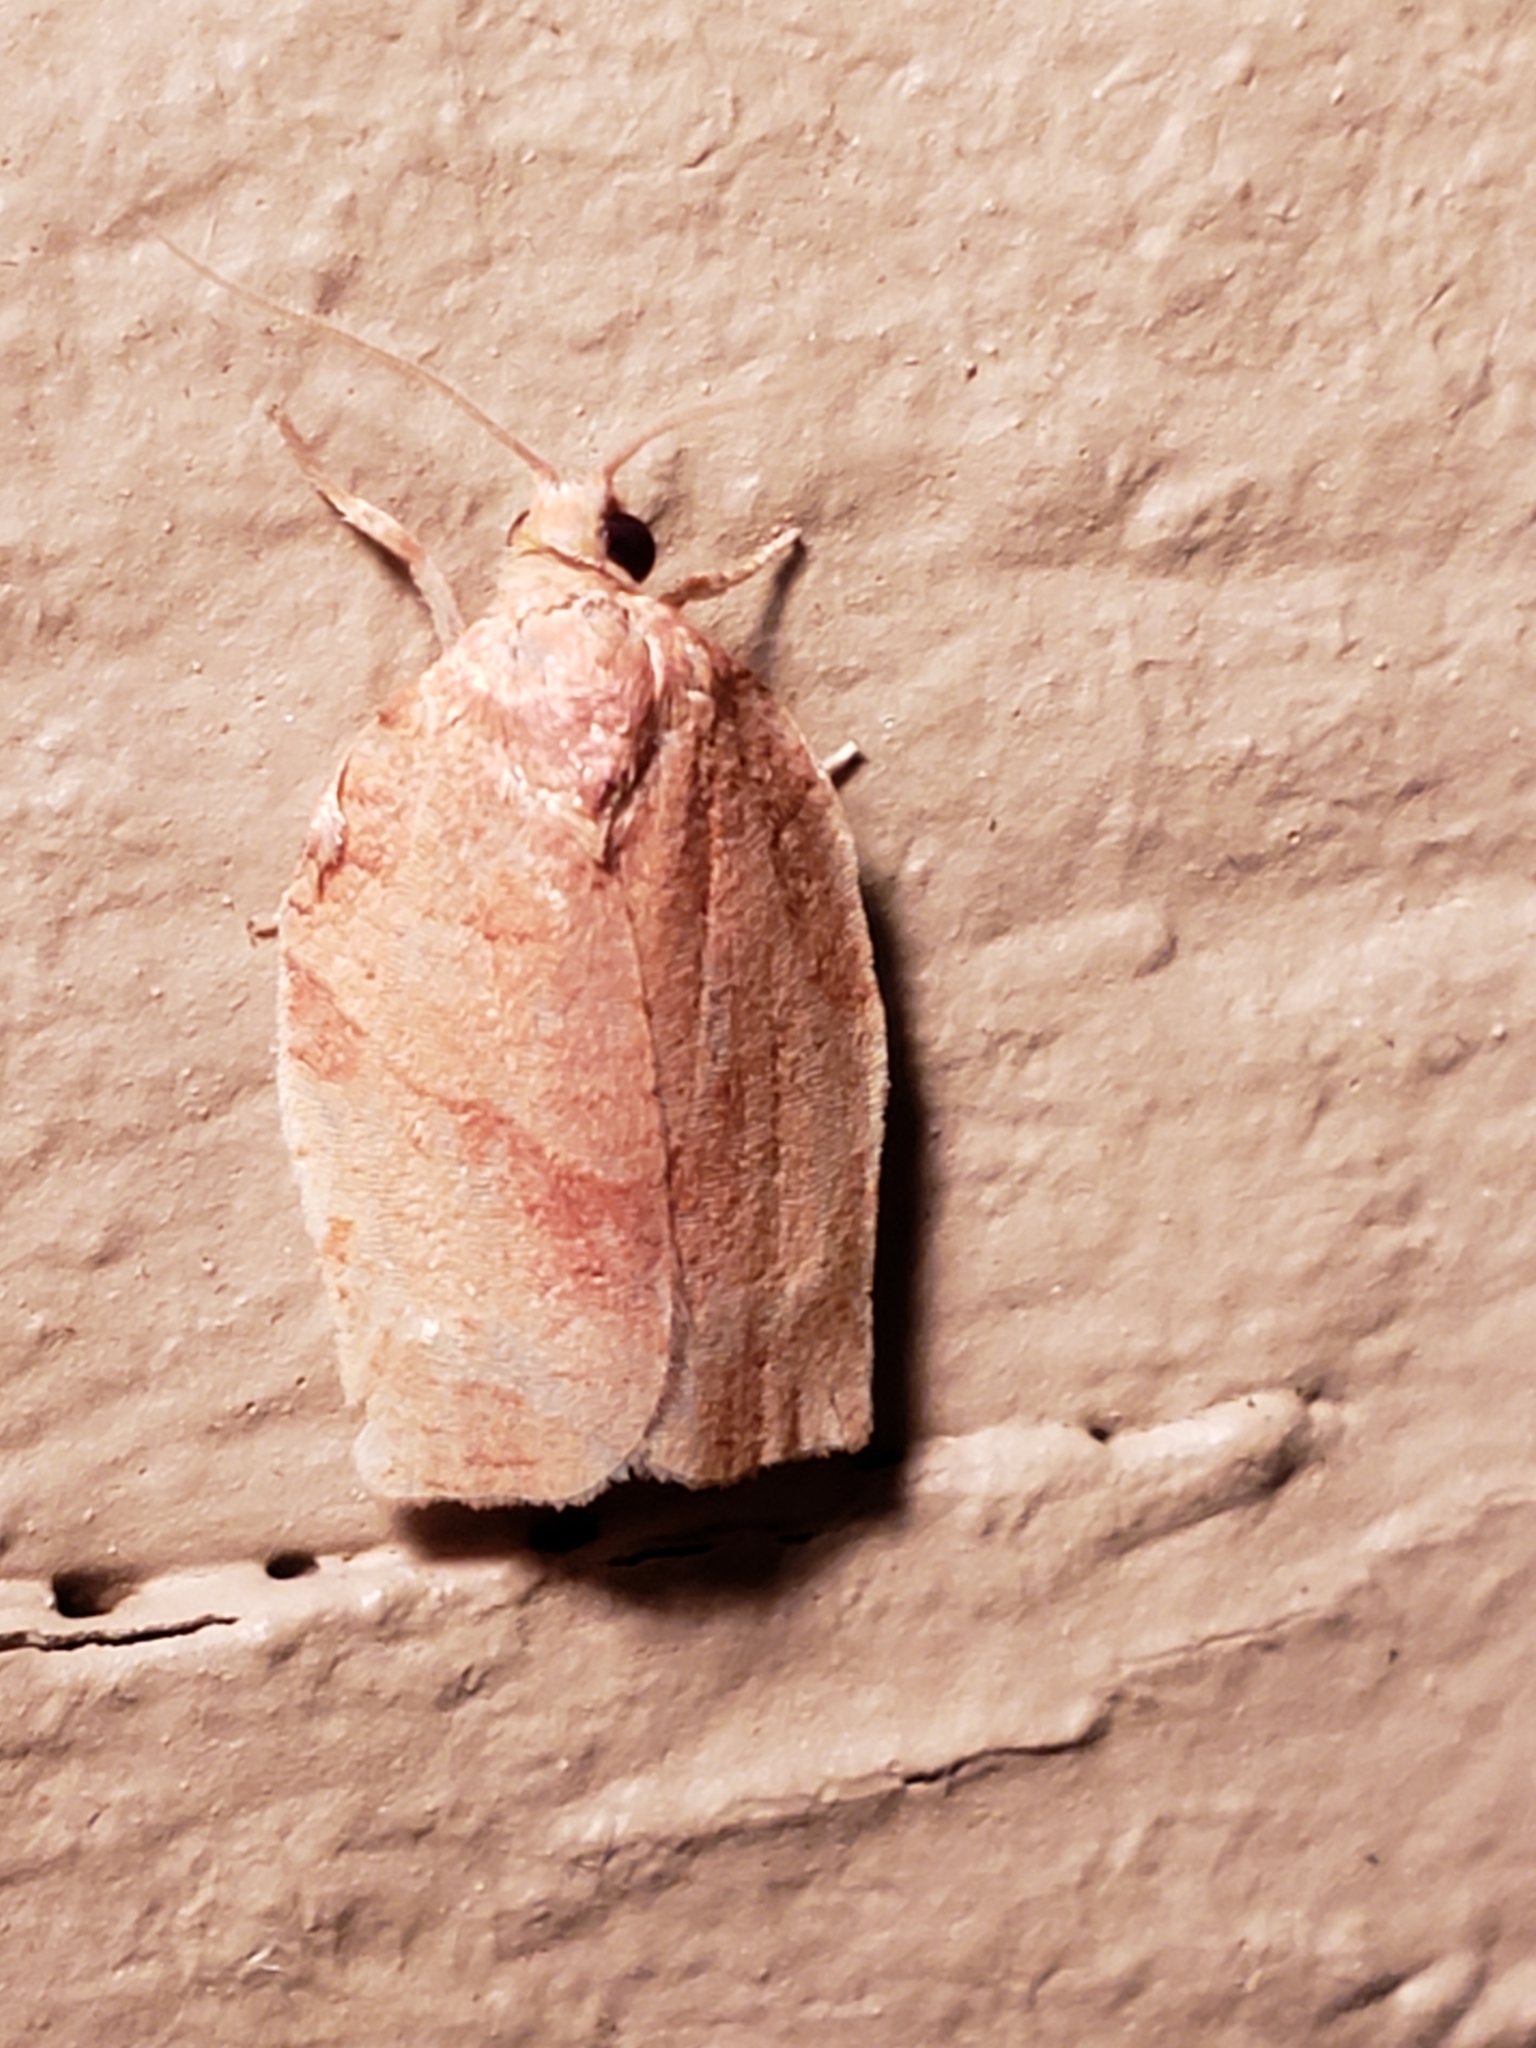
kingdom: Animalia
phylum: Arthropoda
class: Insecta
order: Lepidoptera
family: Tortricidae
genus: Choristoneura
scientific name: Choristoneura rosaceana
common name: Oblique-banded leafroller moth
